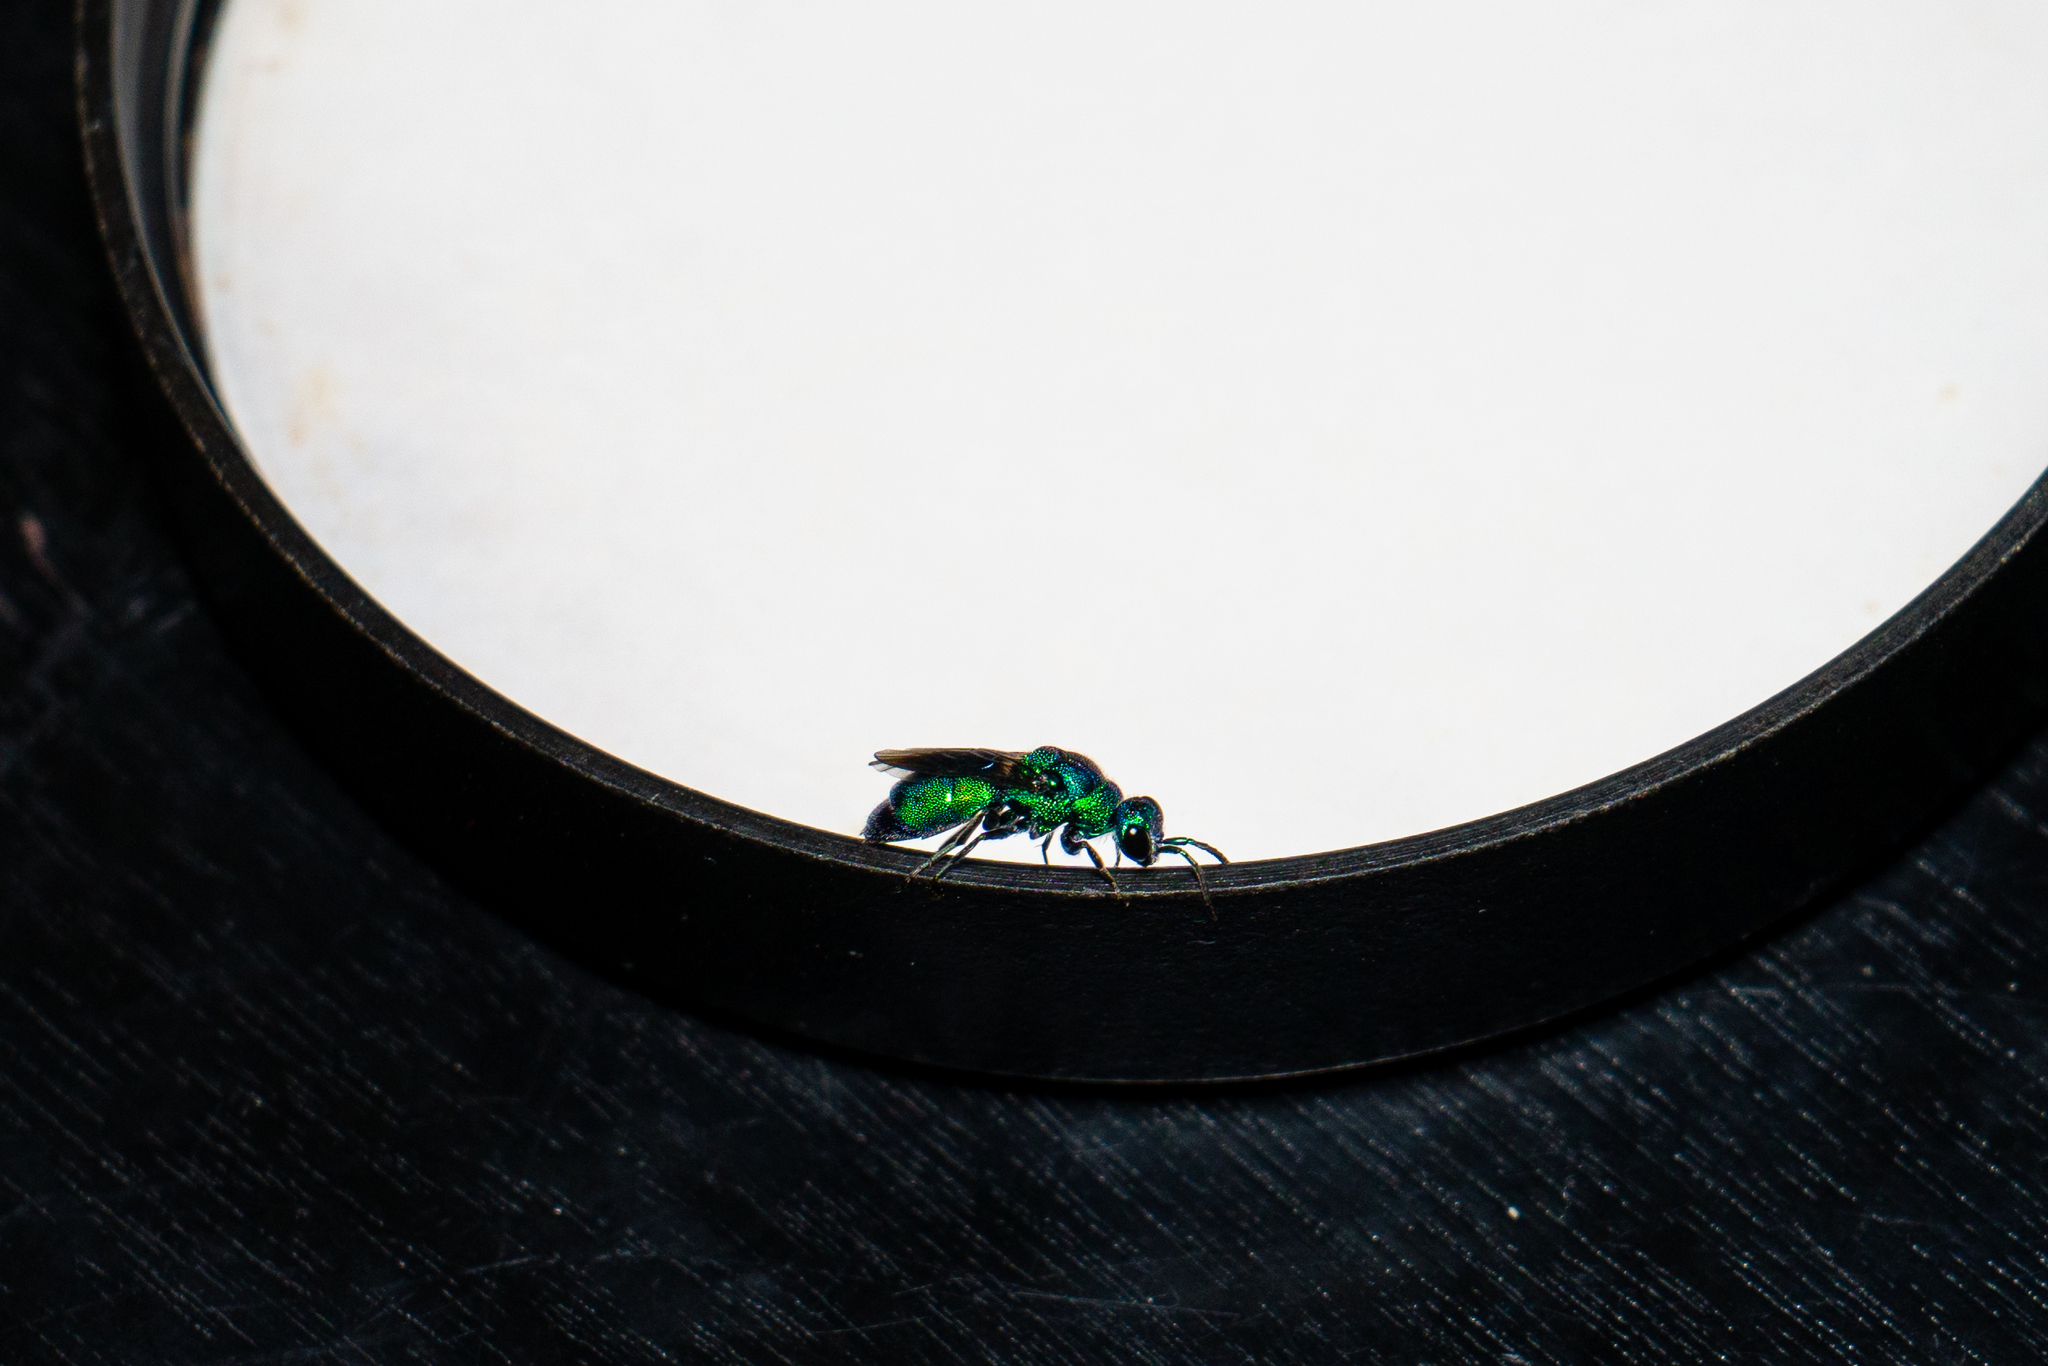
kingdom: Animalia
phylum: Arthropoda
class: Insecta
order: Hymenoptera
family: Chrysididae
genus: Chrysis
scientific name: Chrysis angolensis
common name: Cuckoo wasp
